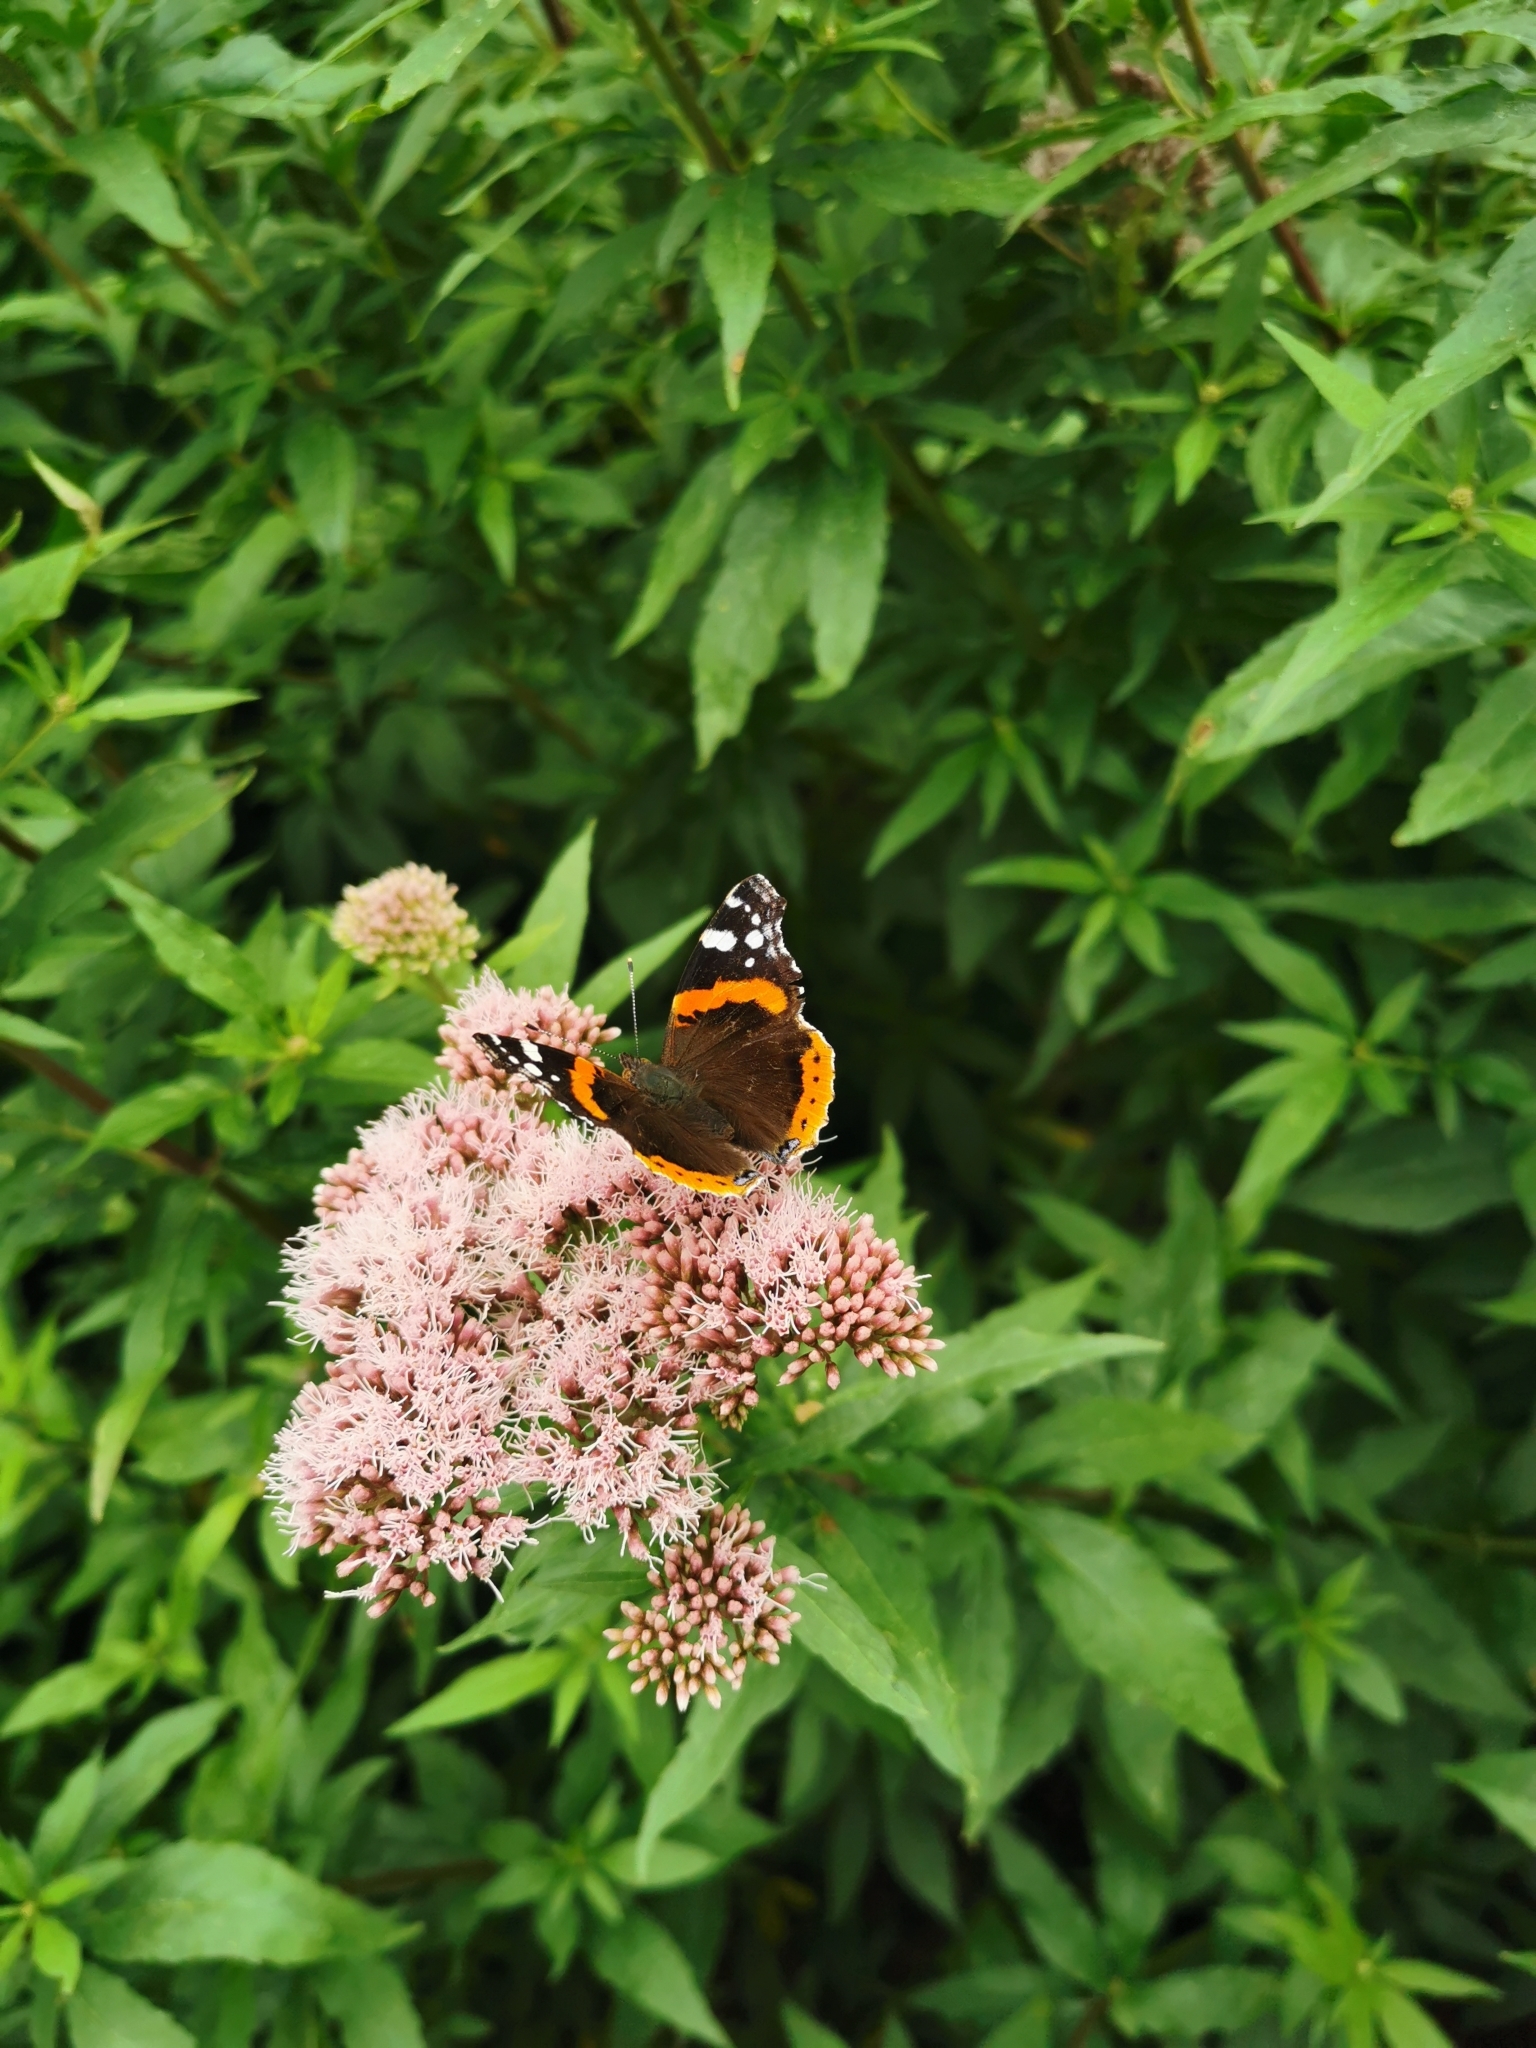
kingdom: Animalia
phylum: Arthropoda
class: Insecta
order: Lepidoptera
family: Nymphalidae
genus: Vanessa
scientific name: Vanessa atalanta
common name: Red admiral
